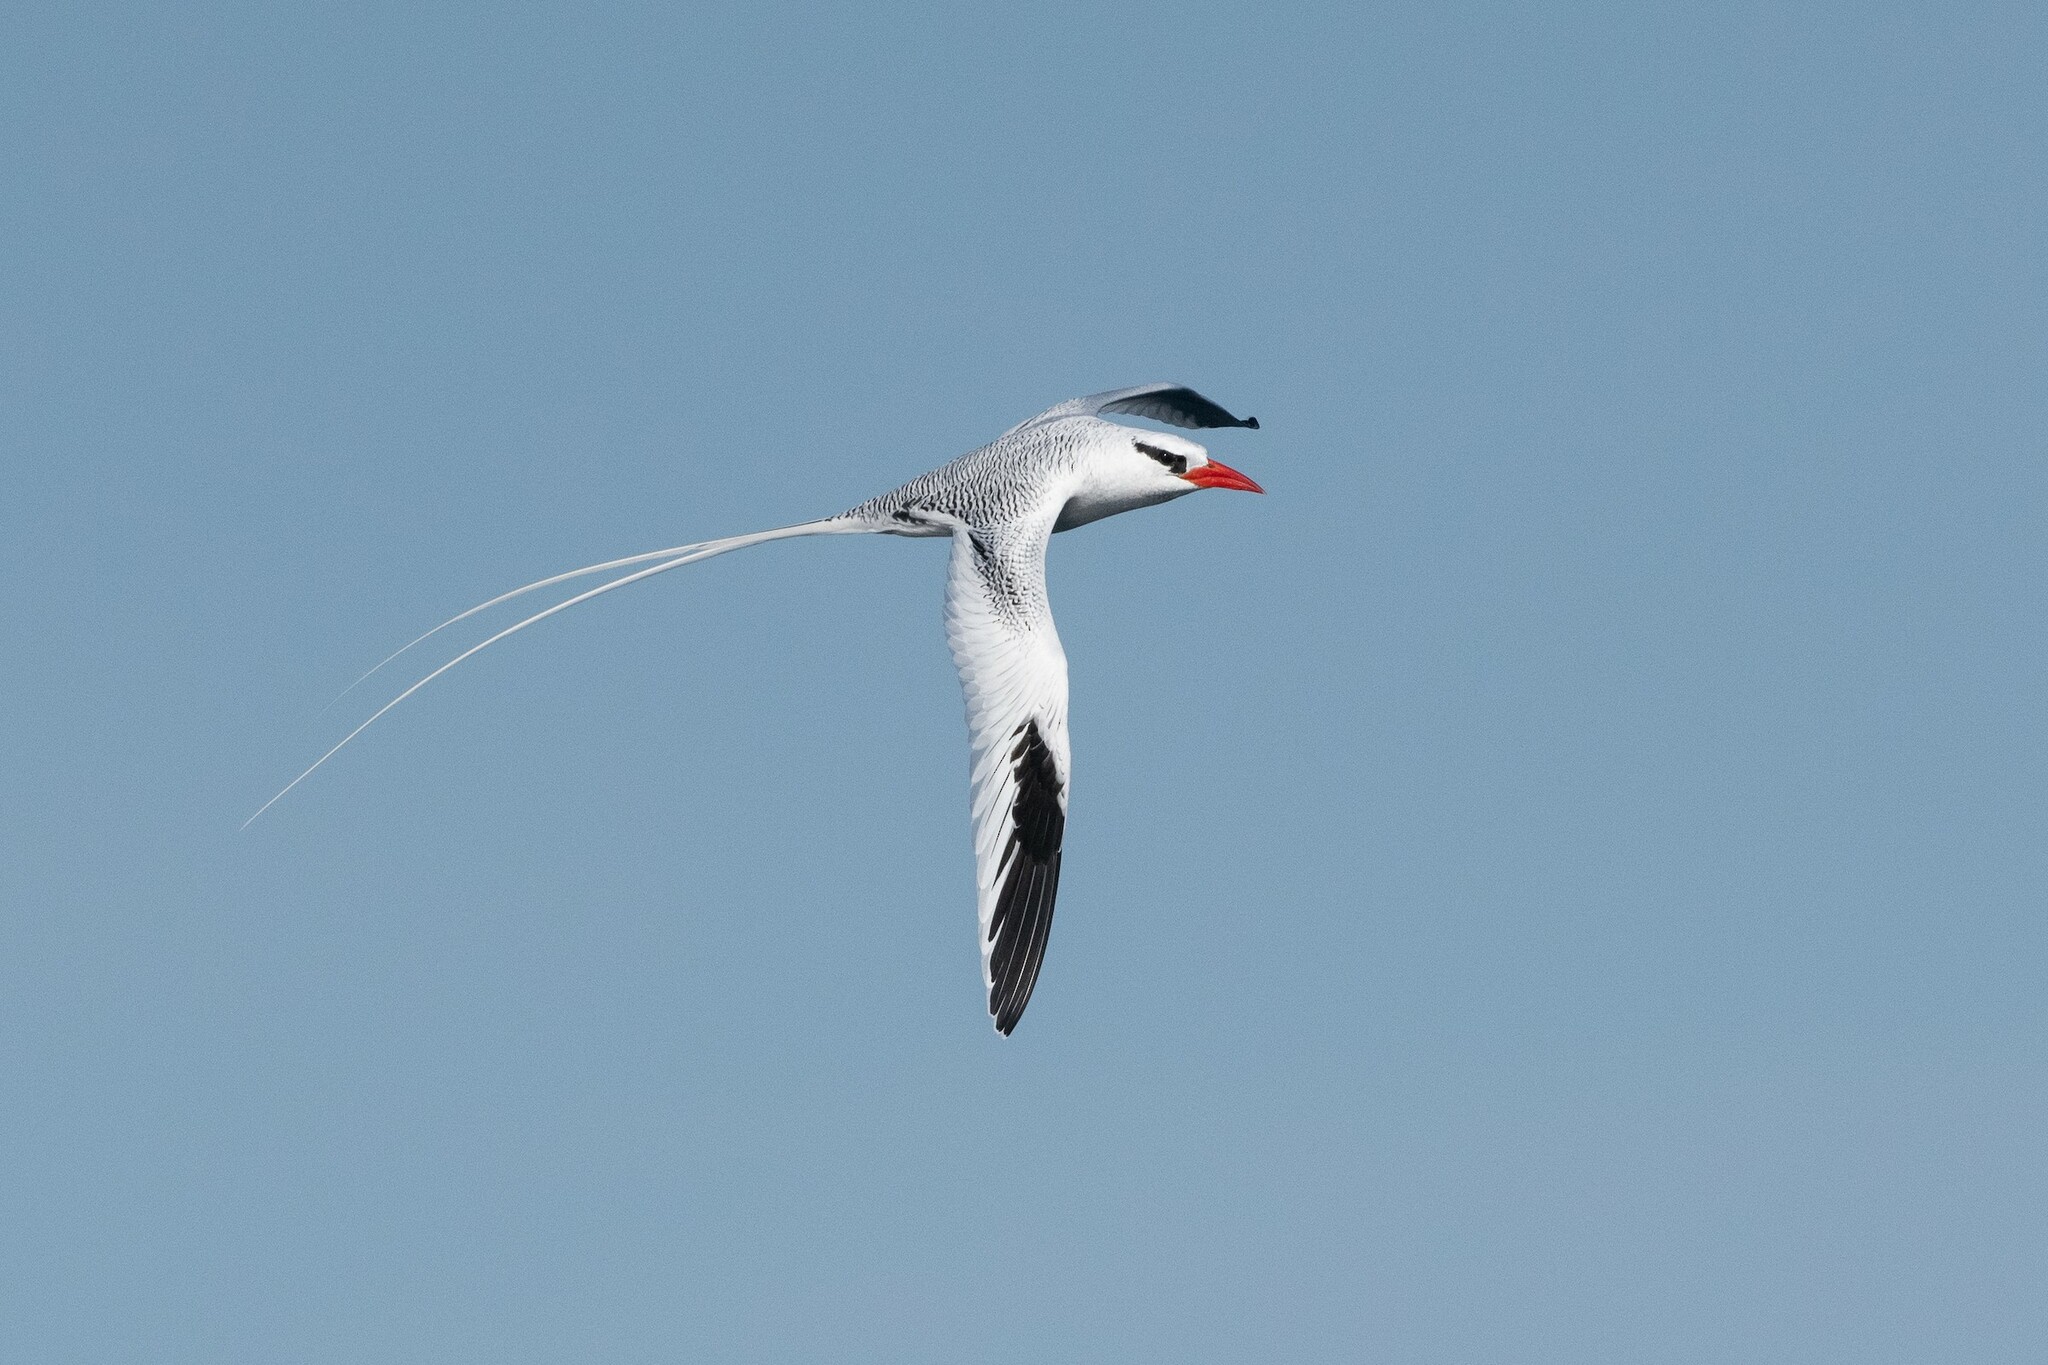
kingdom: Animalia
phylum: Chordata
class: Aves
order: Phaethontiformes
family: Phaethontidae
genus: Phaethon
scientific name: Phaethon aethereus
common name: Red-billed tropicbird
